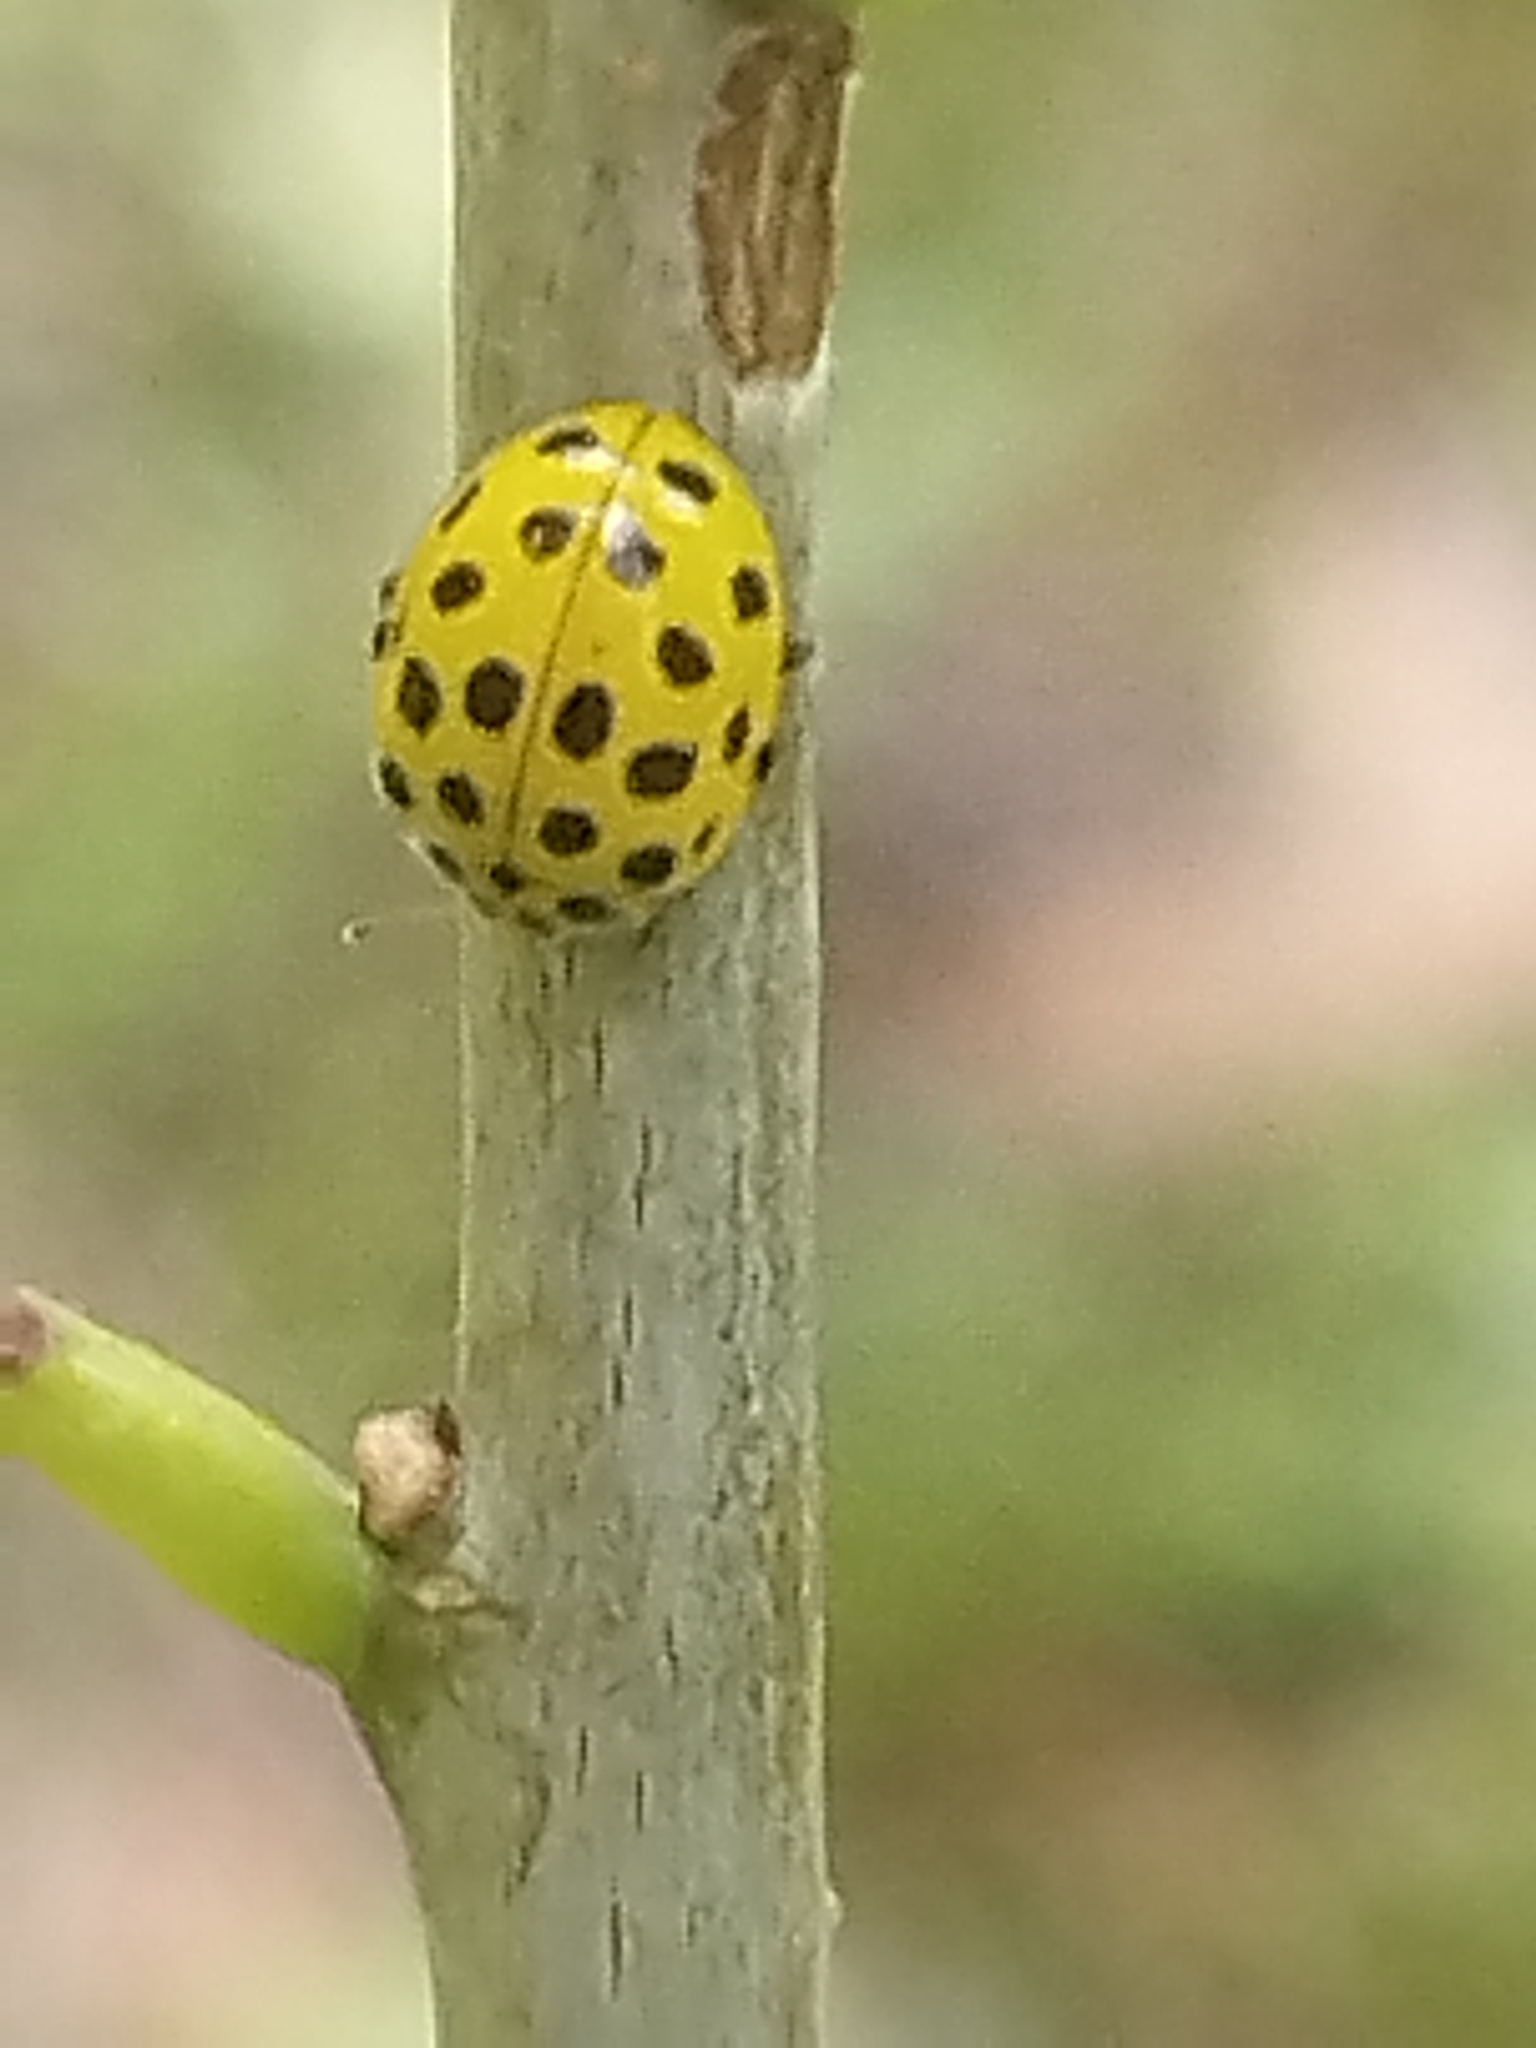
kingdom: Animalia
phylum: Arthropoda
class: Insecta
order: Coleoptera
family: Coccinellidae
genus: Psyllobora
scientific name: Psyllobora vigintiduopunctata
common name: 22-spot ladybird
